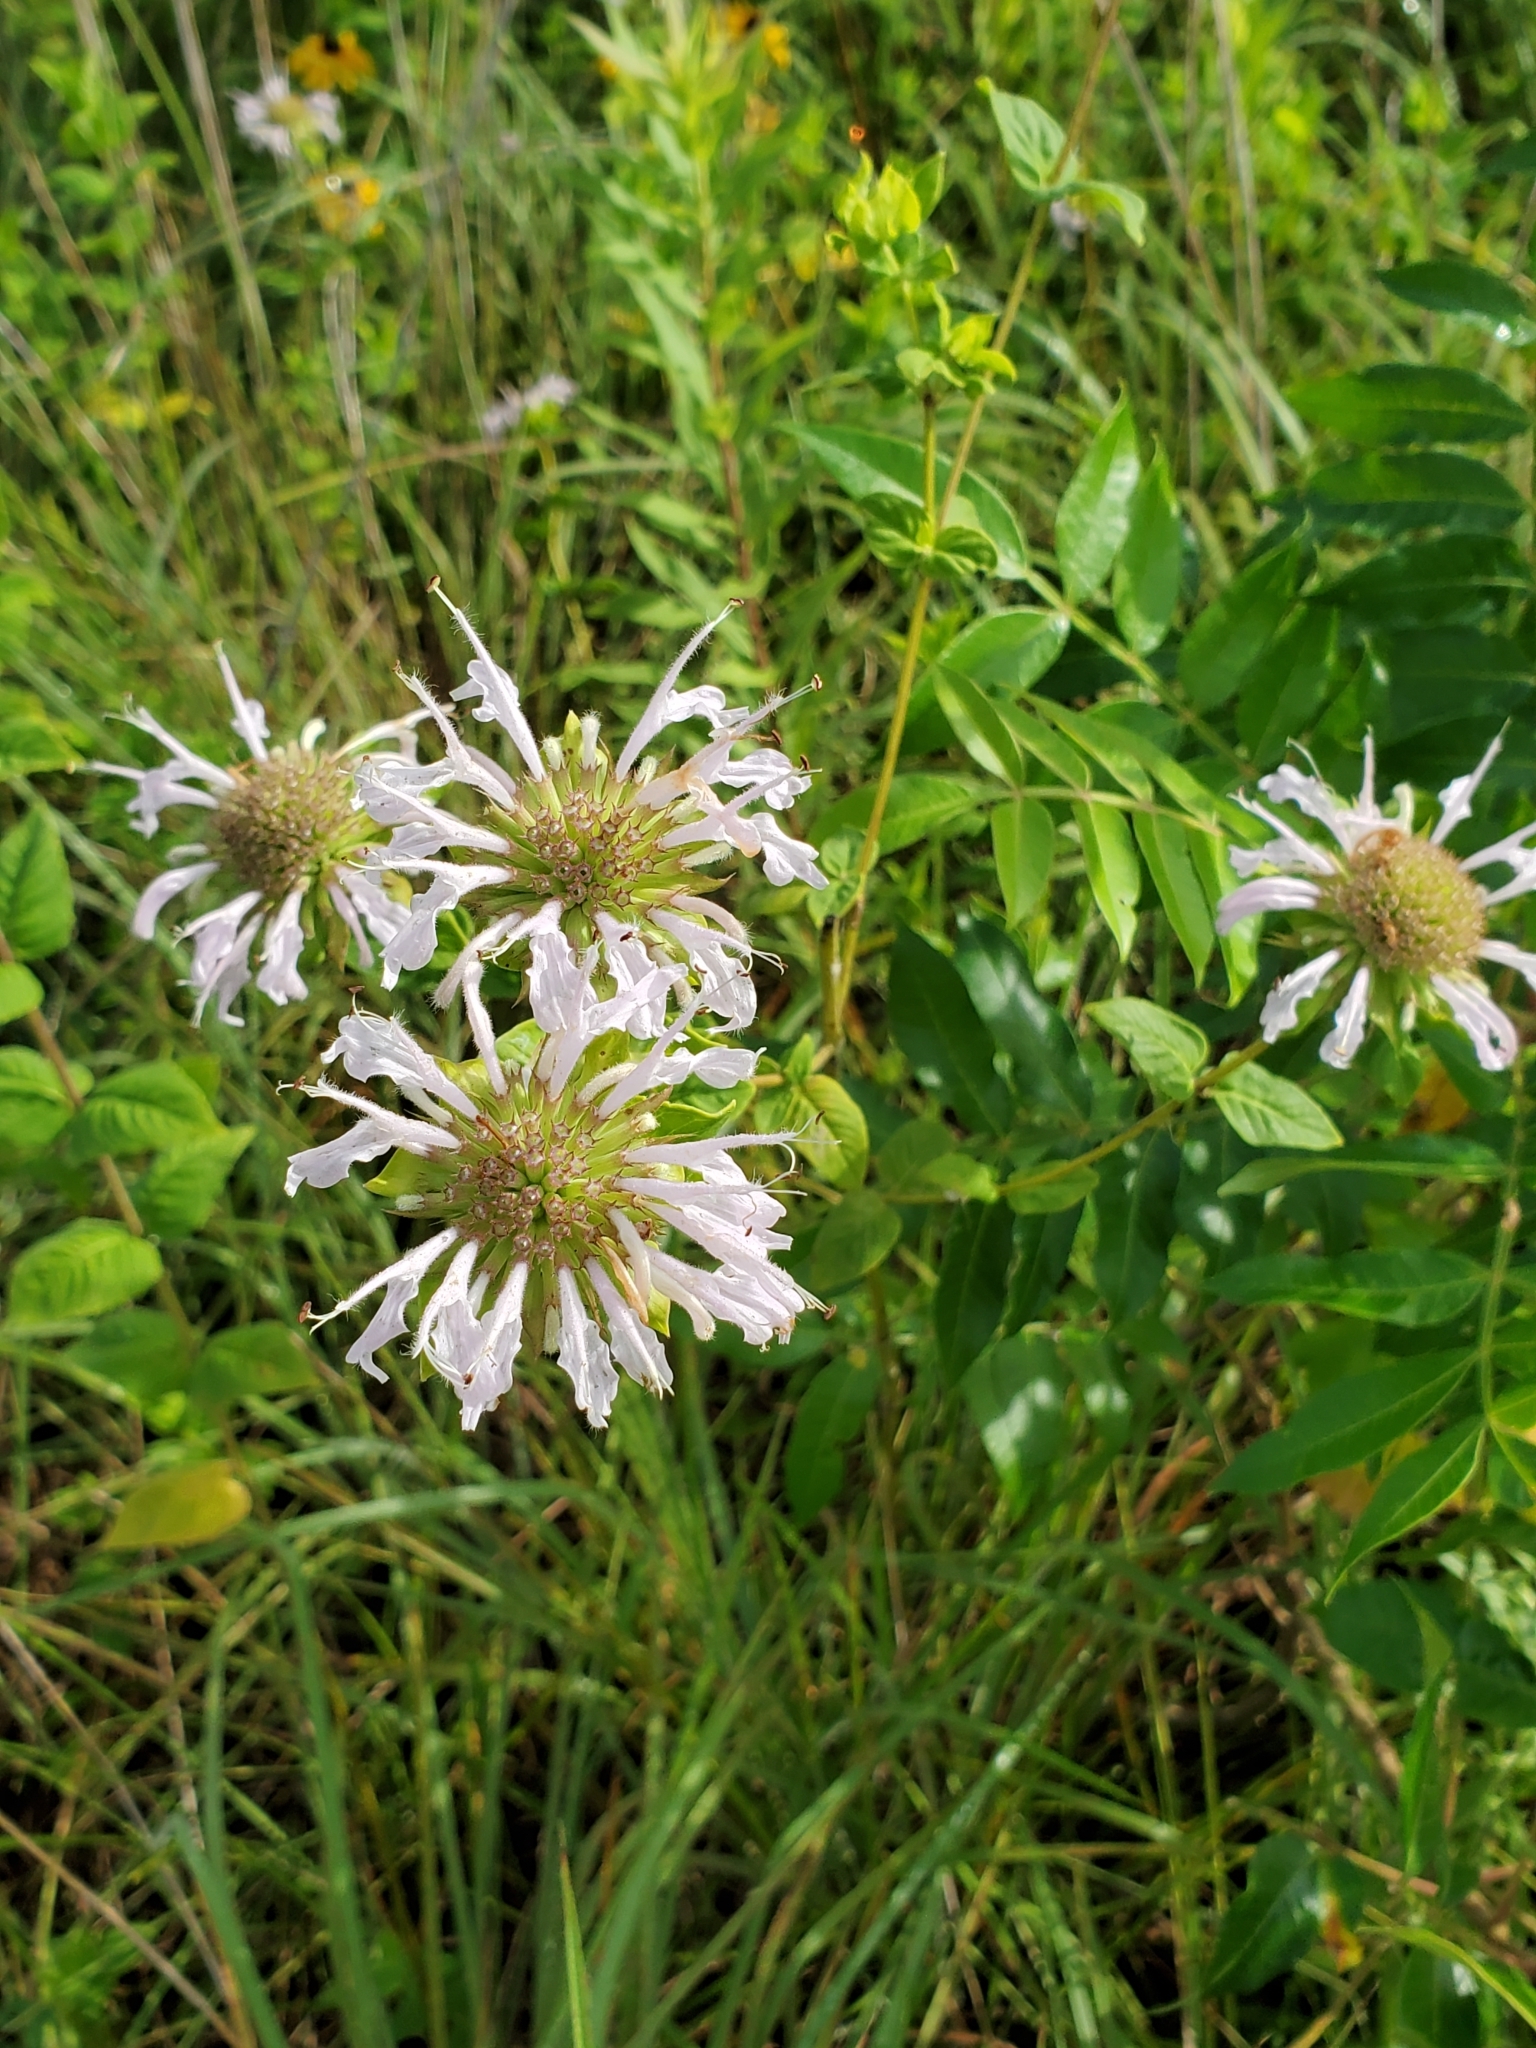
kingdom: Plantae
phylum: Tracheophyta
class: Magnoliopsida
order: Lamiales
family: Lamiaceae
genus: Monarda
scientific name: Monarda fistulosa
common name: Purple beebalm
